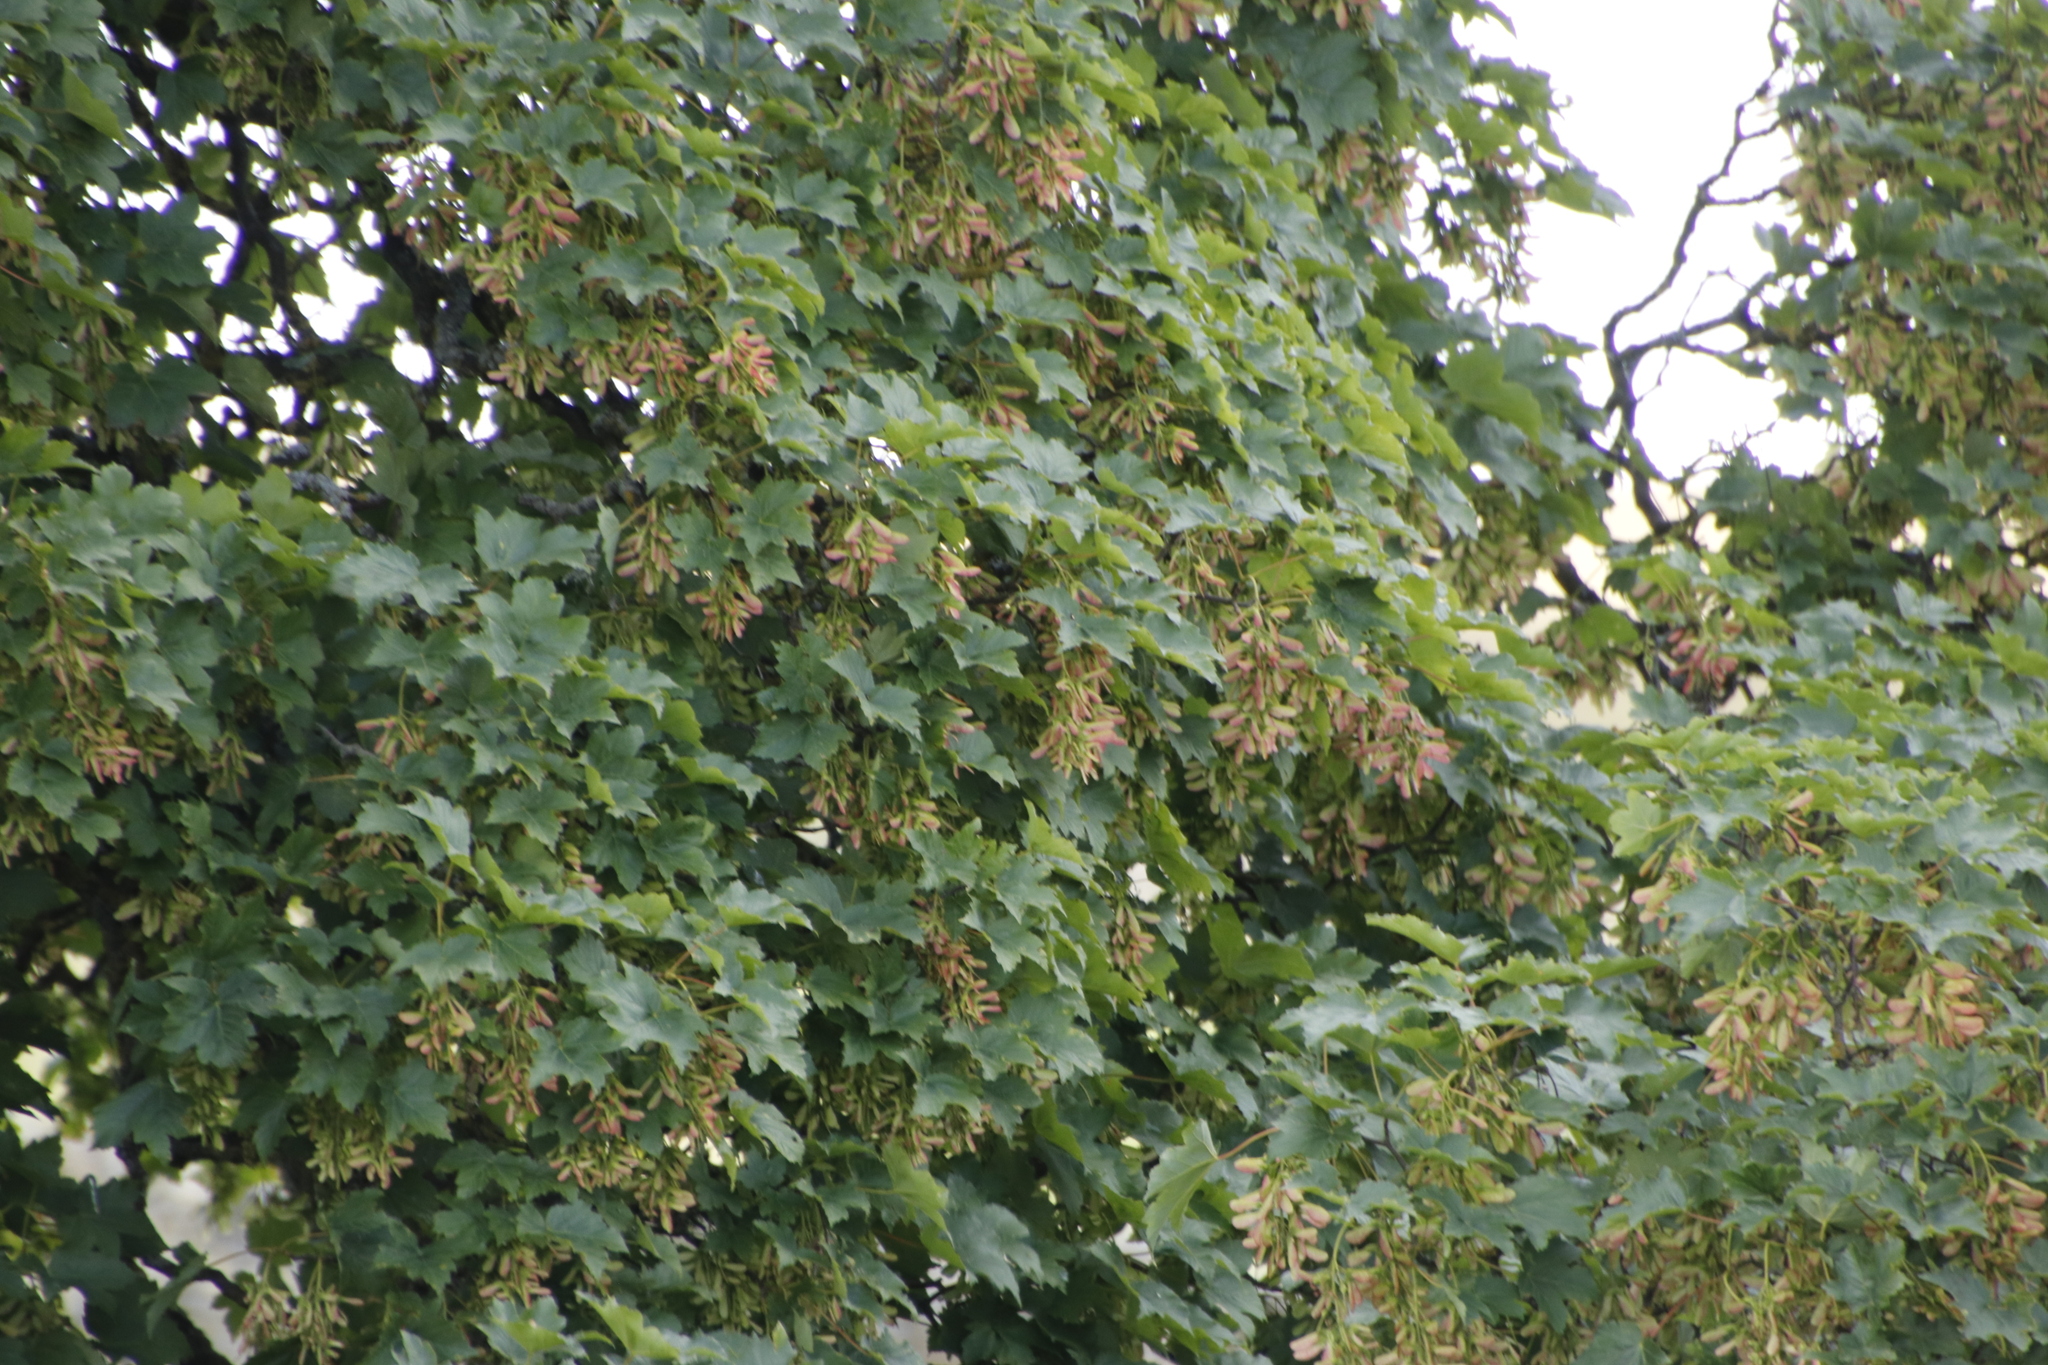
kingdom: Plantae
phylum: Tracheophyta
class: Magnoliopsida
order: Sapindales
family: Sapindaceae
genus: Acer
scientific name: Acer pseudoplatanus
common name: Sycamore
